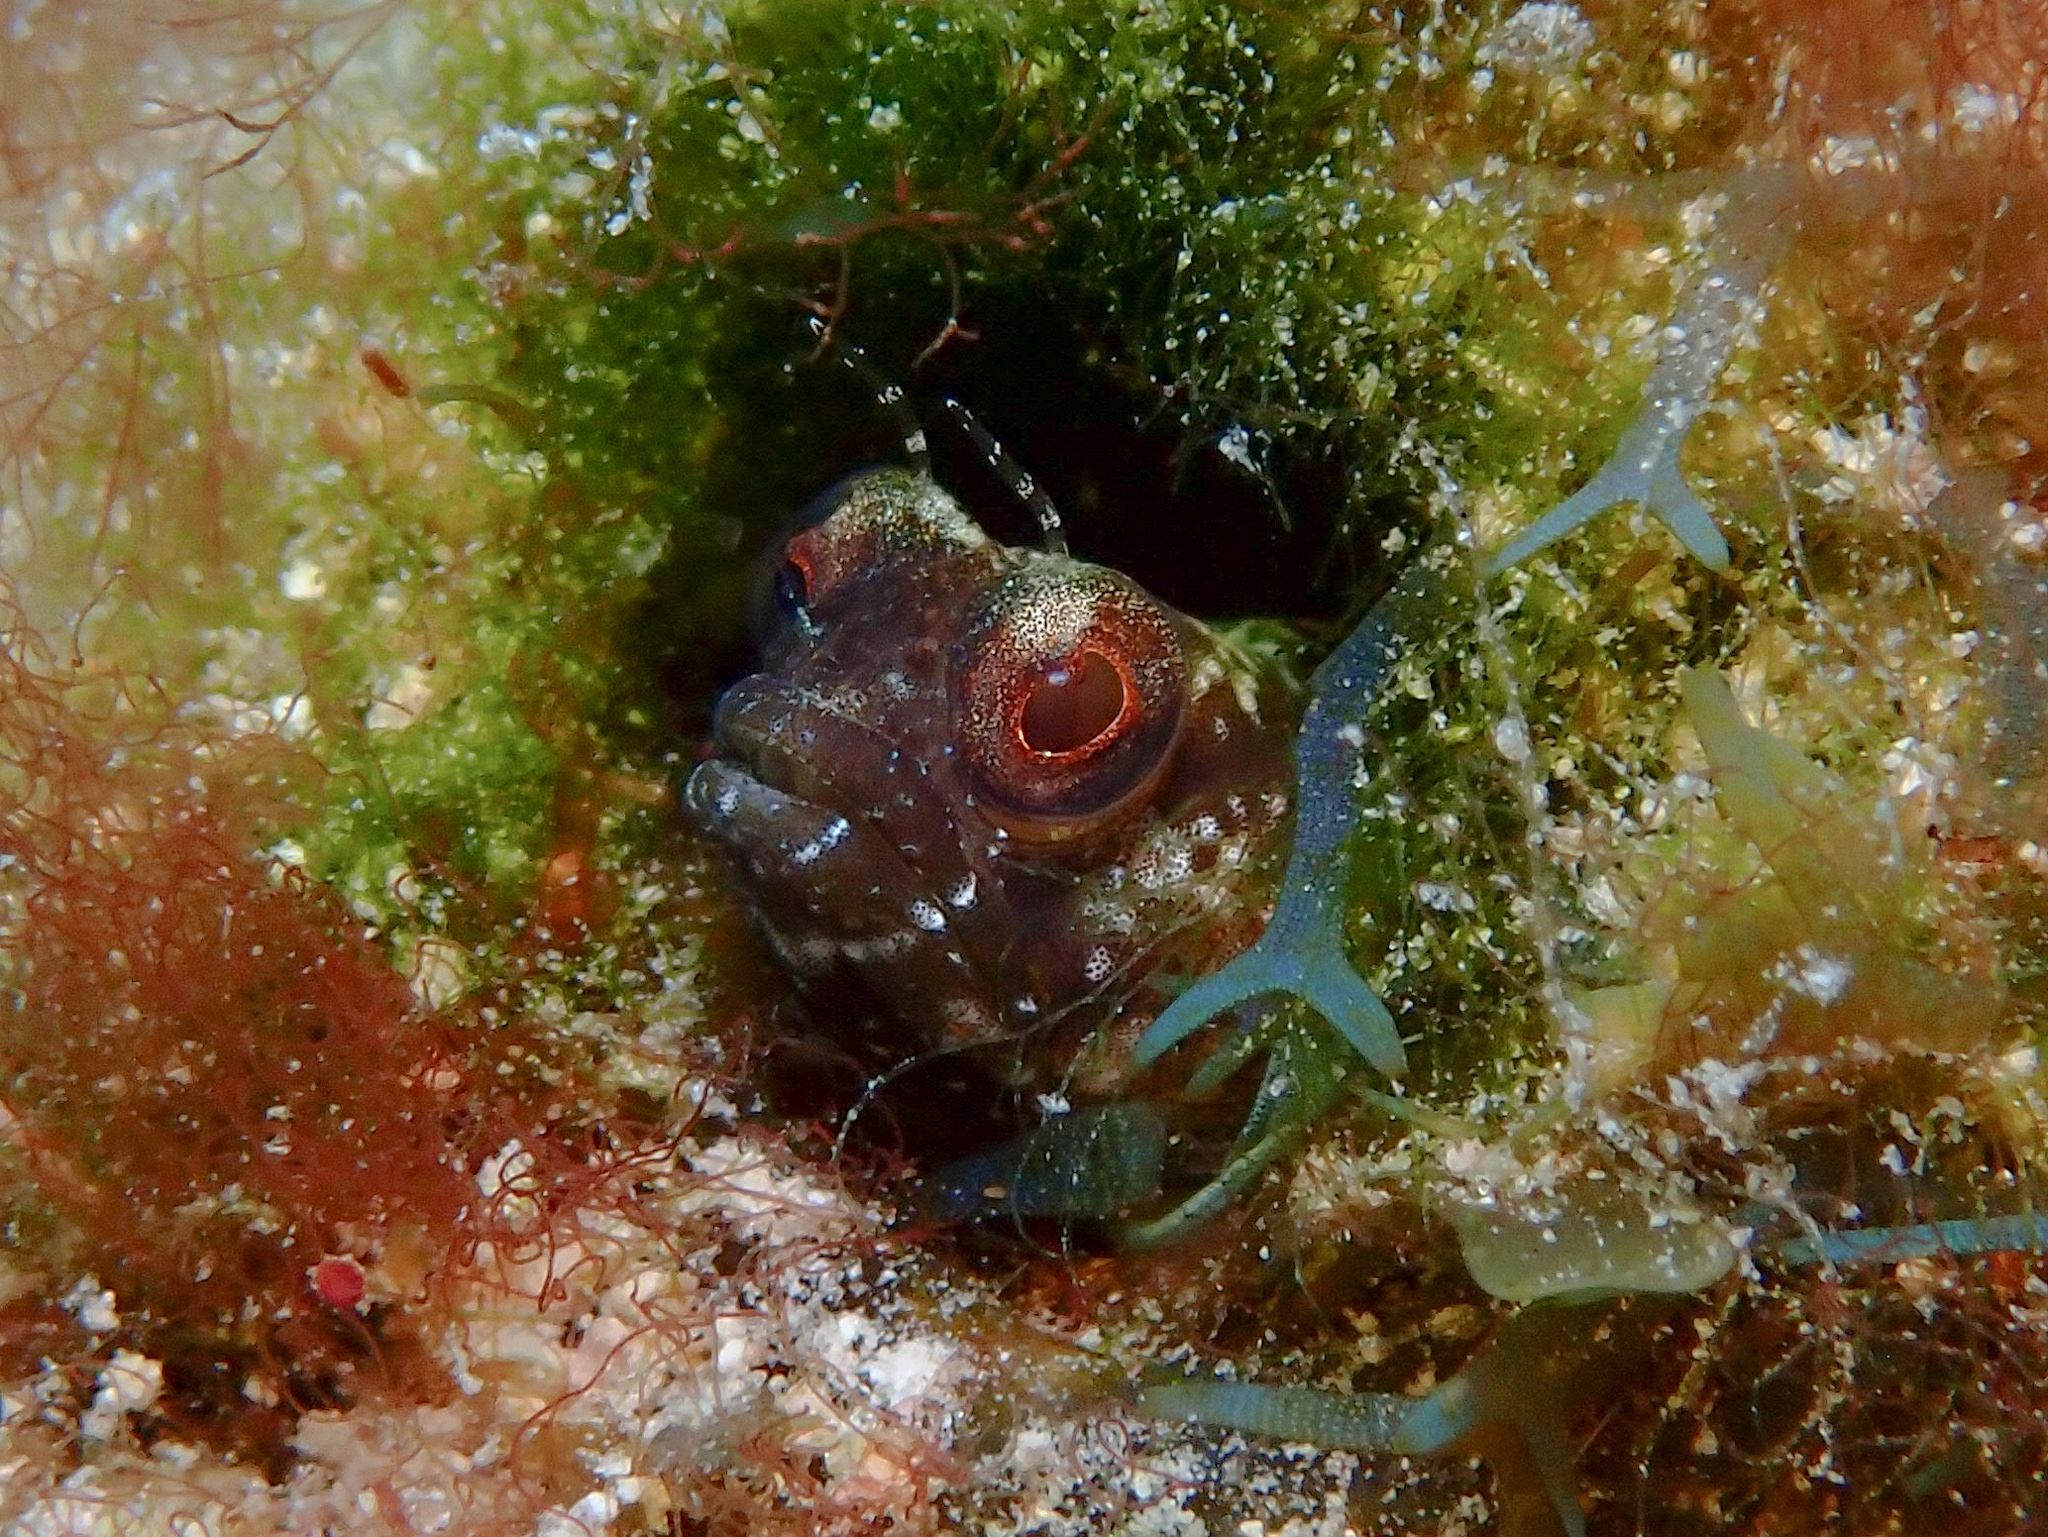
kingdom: Animalia
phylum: Chordata
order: Perciformes
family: Chaenopsidae
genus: Emblemaria
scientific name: Emblemaria pandionis
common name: Sailfin blenny
